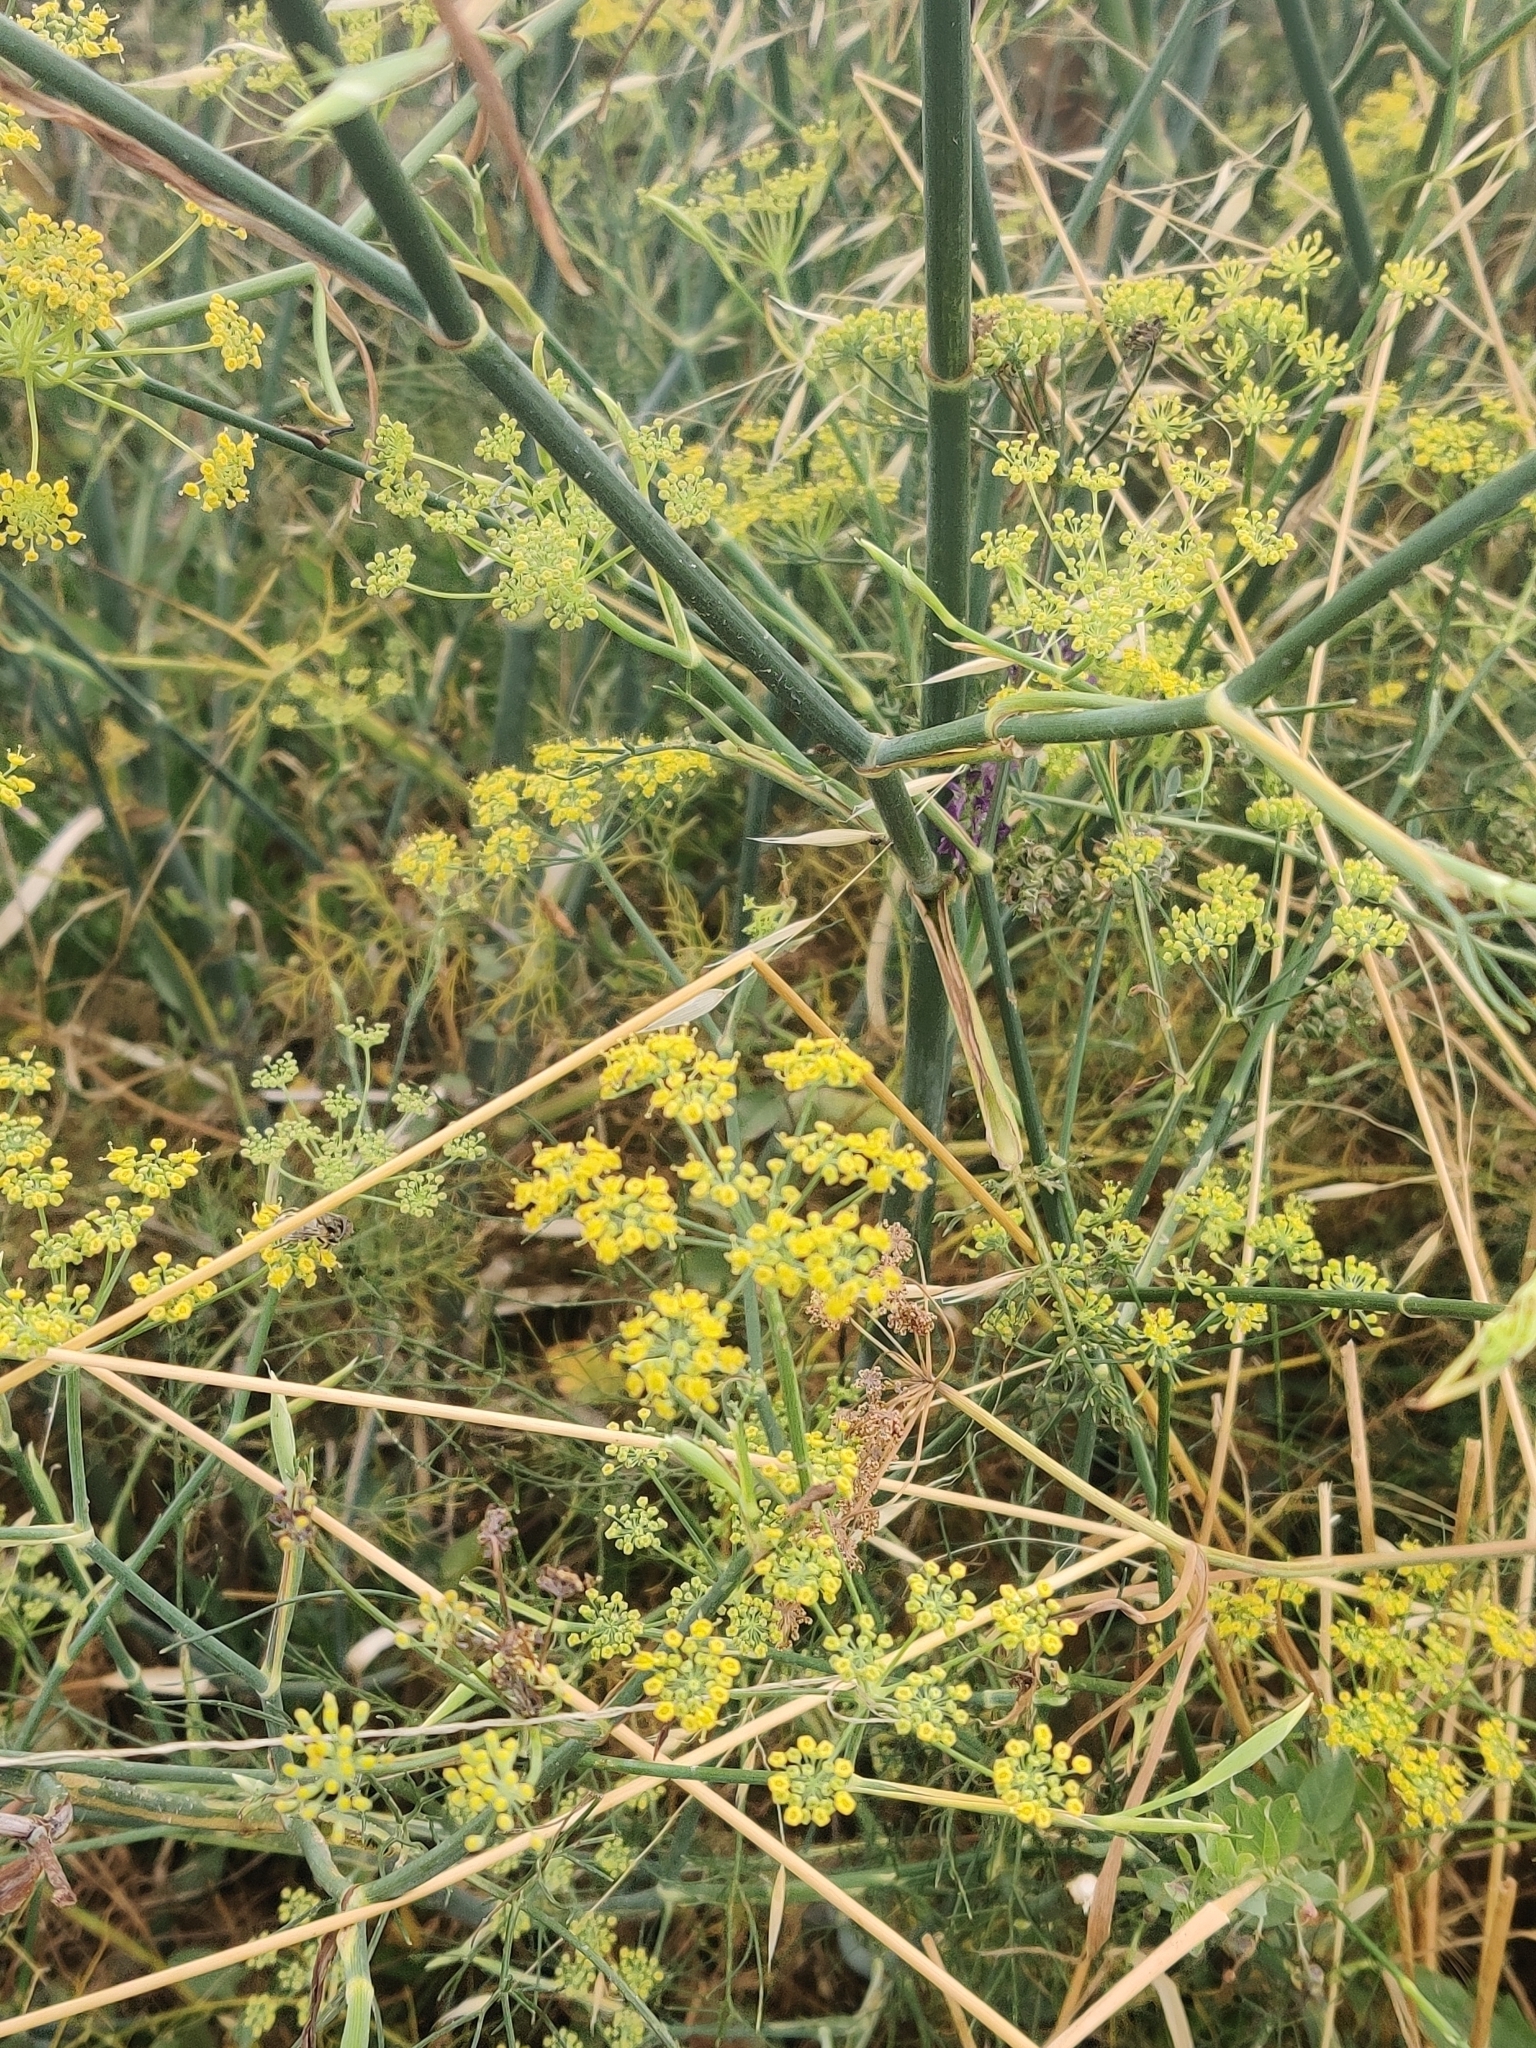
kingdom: Plantae
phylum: Tracheophyta
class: Magnoliopsida
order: Apiales
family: Apiaceae
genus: Foeniculum
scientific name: Foeniculum vulgare
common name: Fennel
